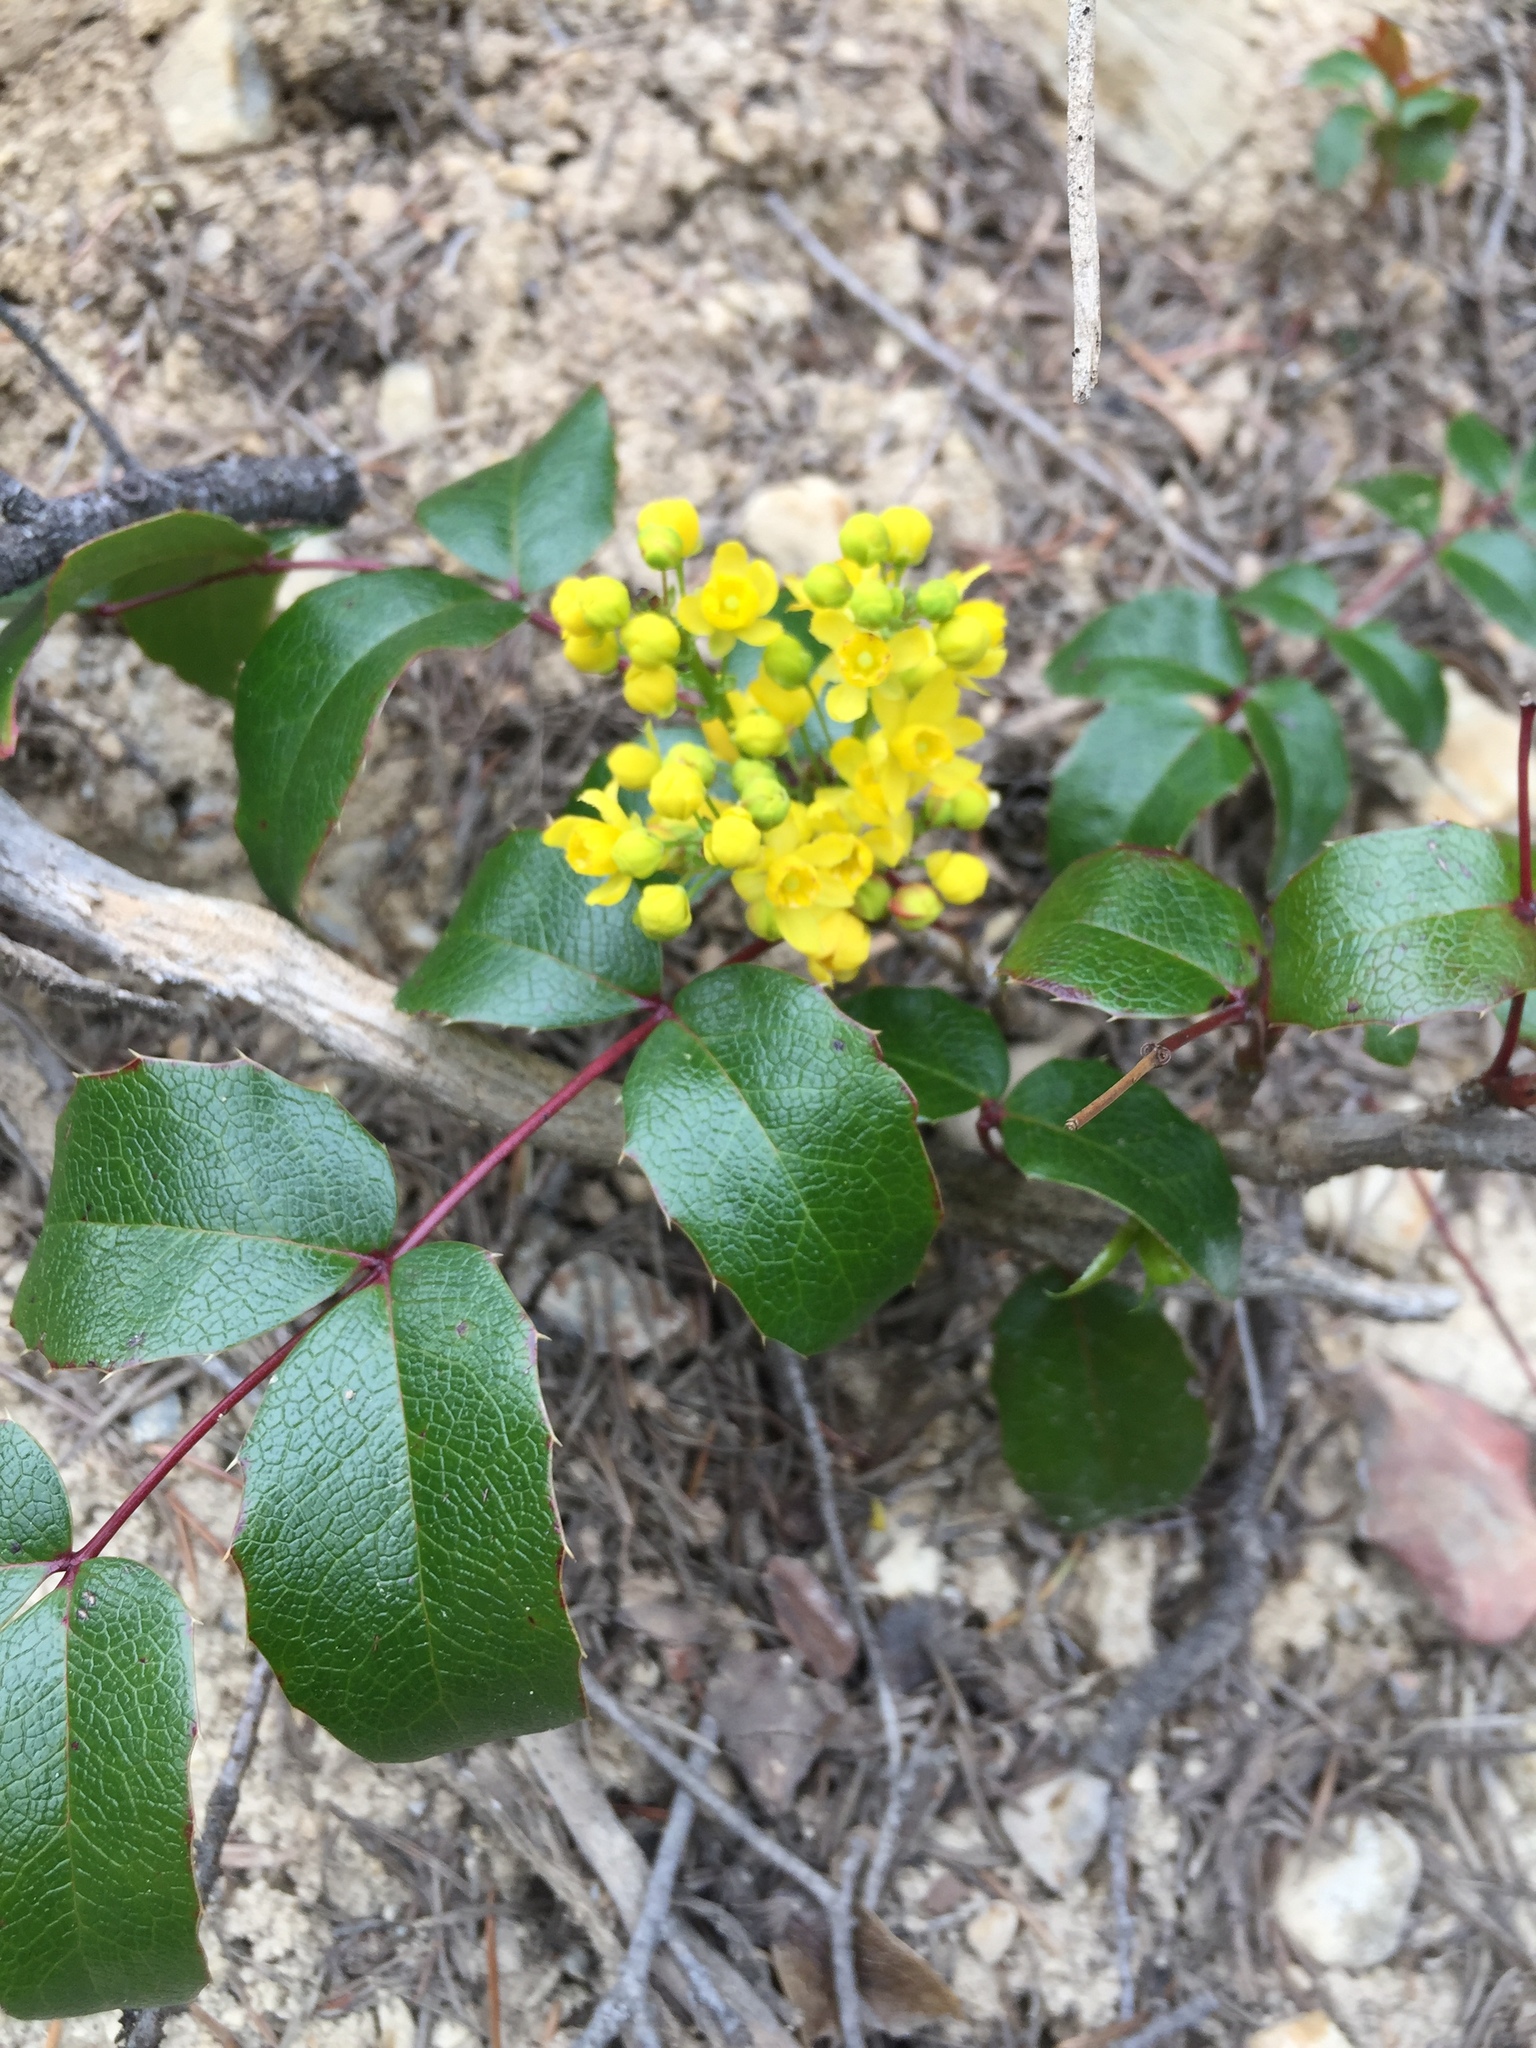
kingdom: Plantae
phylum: Tracheophyta
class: Magnoliopsida
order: Ranunculales
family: Berberidaceae
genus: Mahonia
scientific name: Mahonia aquifolium
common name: Oregon-grape
